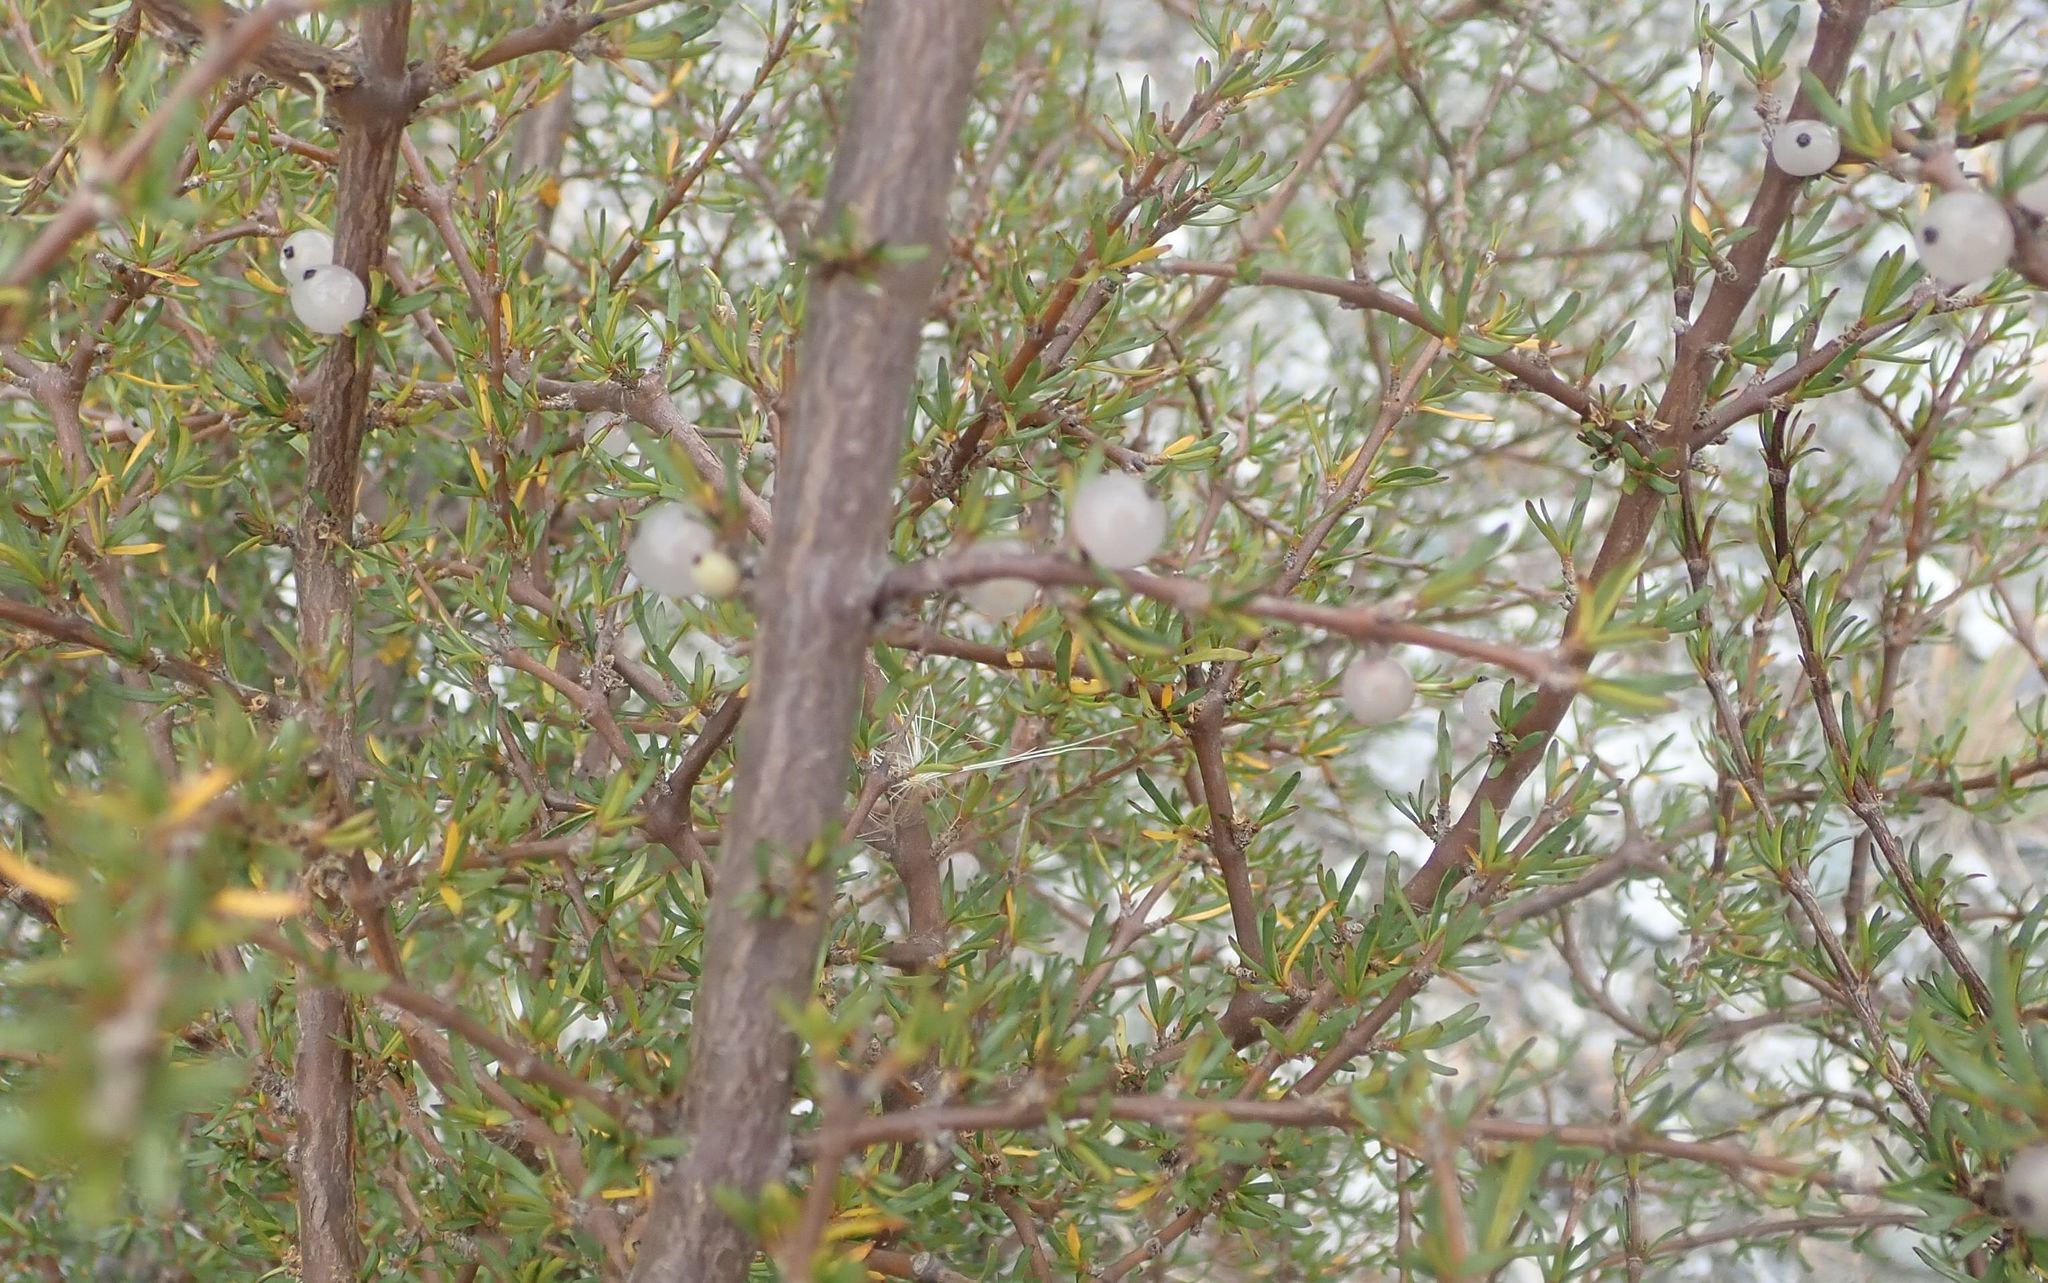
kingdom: Plantae
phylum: Tracheophyta
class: Magnoliopsida
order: Gentianales
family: Rubiaceae
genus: Coprosma
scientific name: Coprosma rugosa
